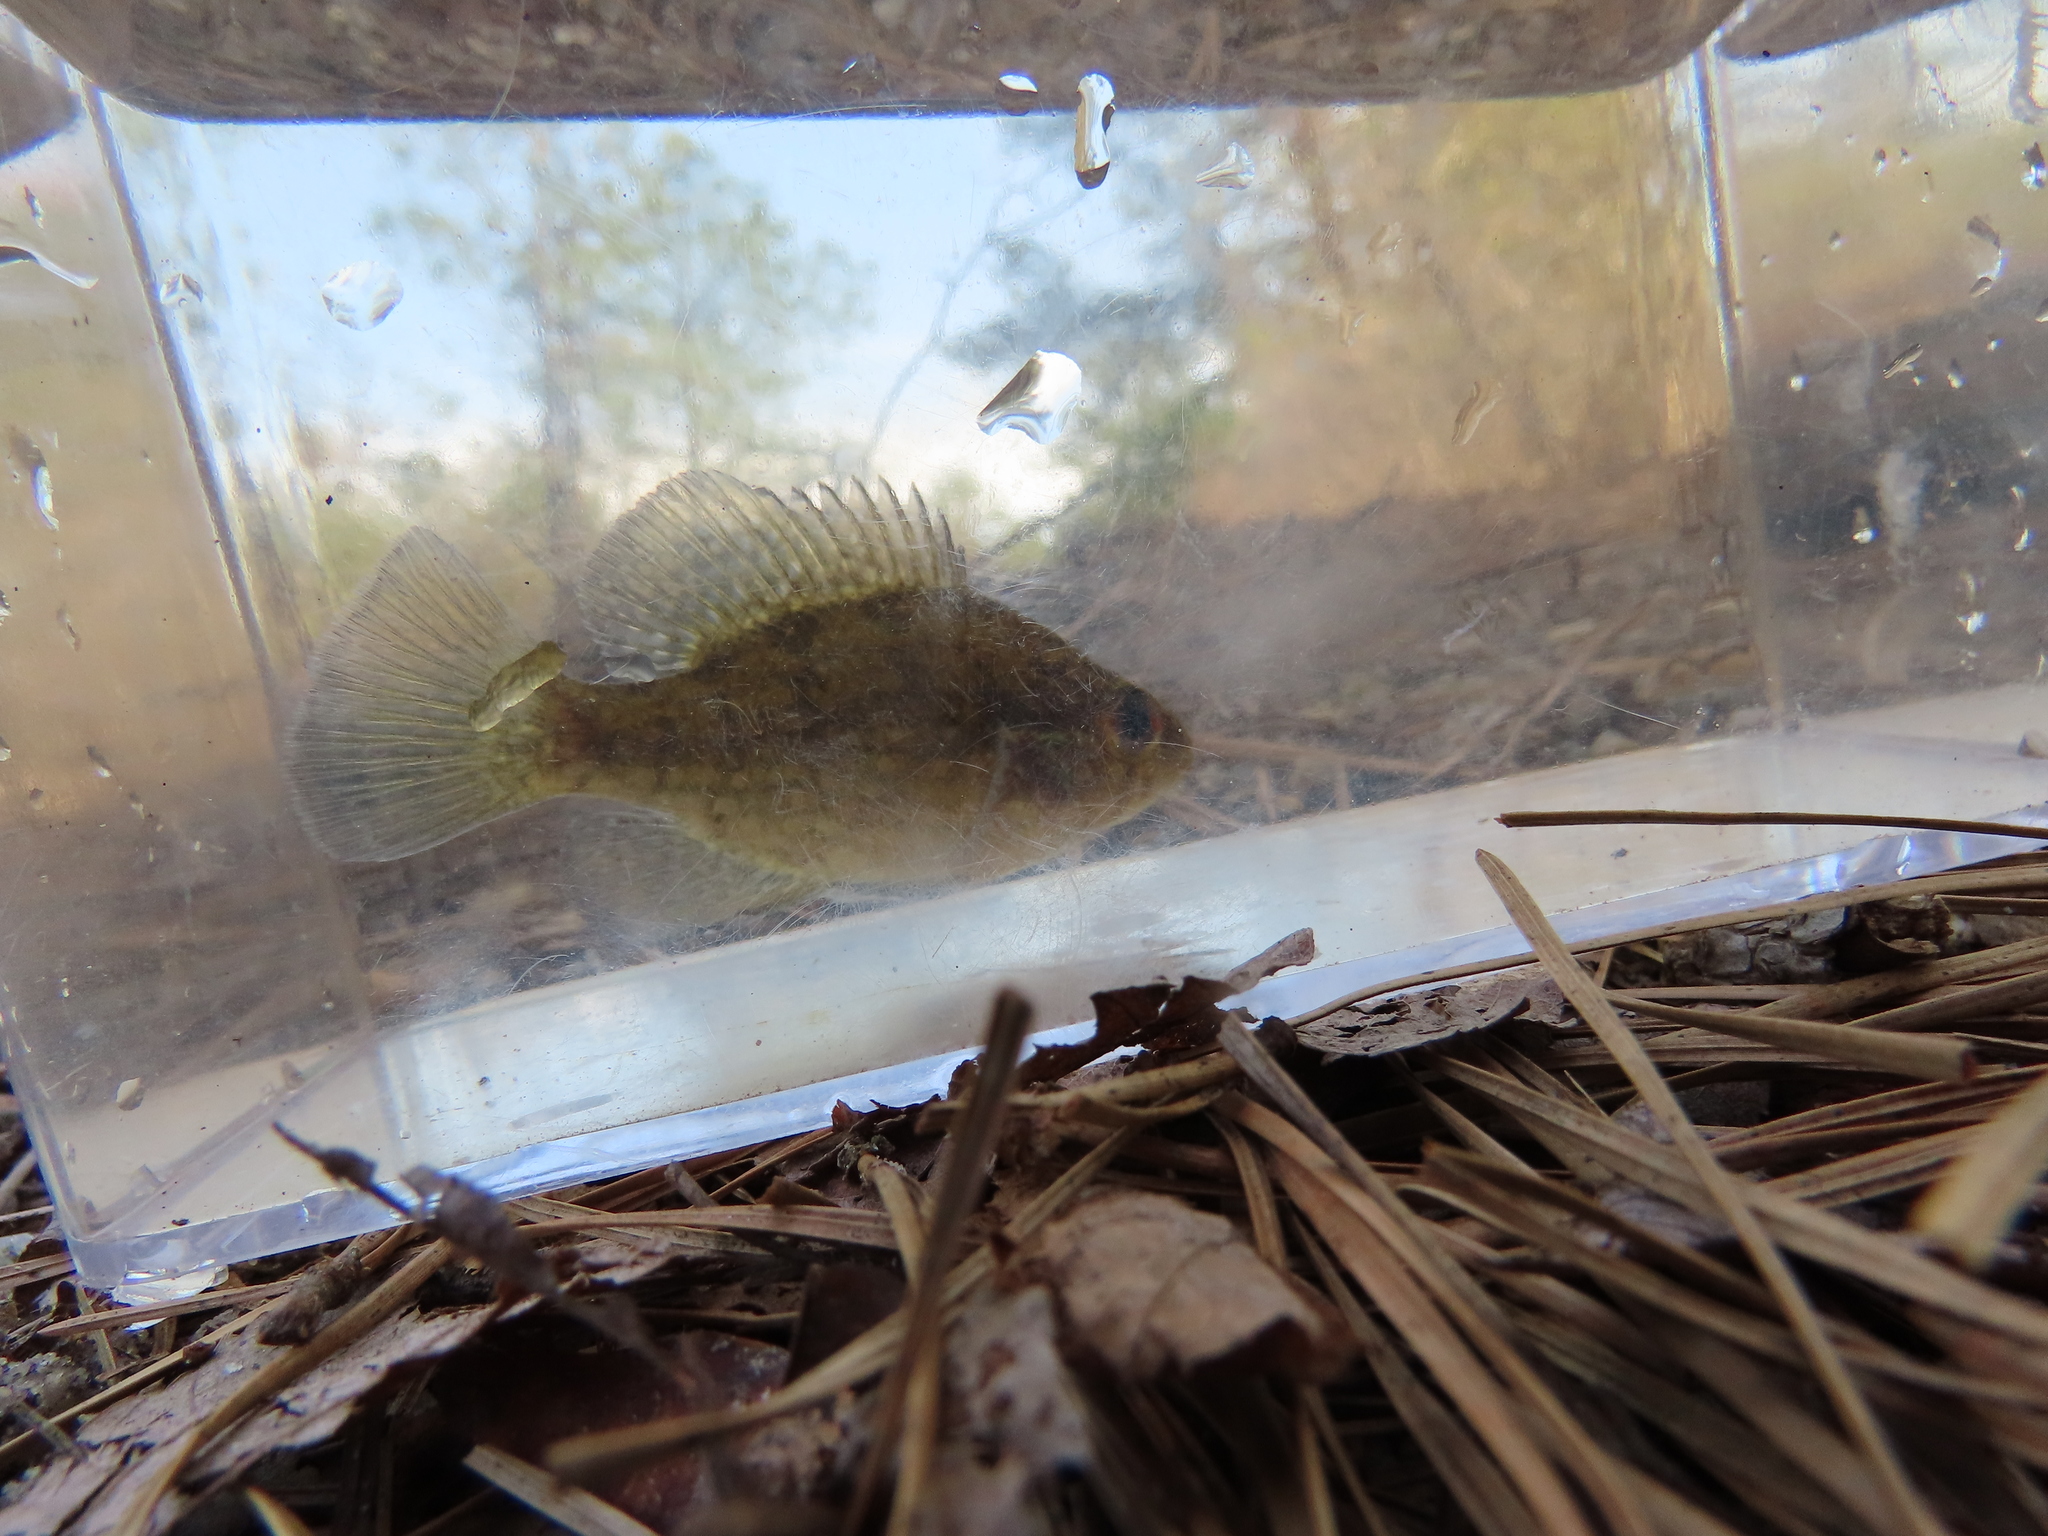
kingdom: Animalia
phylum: Chordata
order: Perciformes
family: Centrarchidae
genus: Enneacanthus
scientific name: Enneacanthus gloriosus
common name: Bluespotted sunfish
